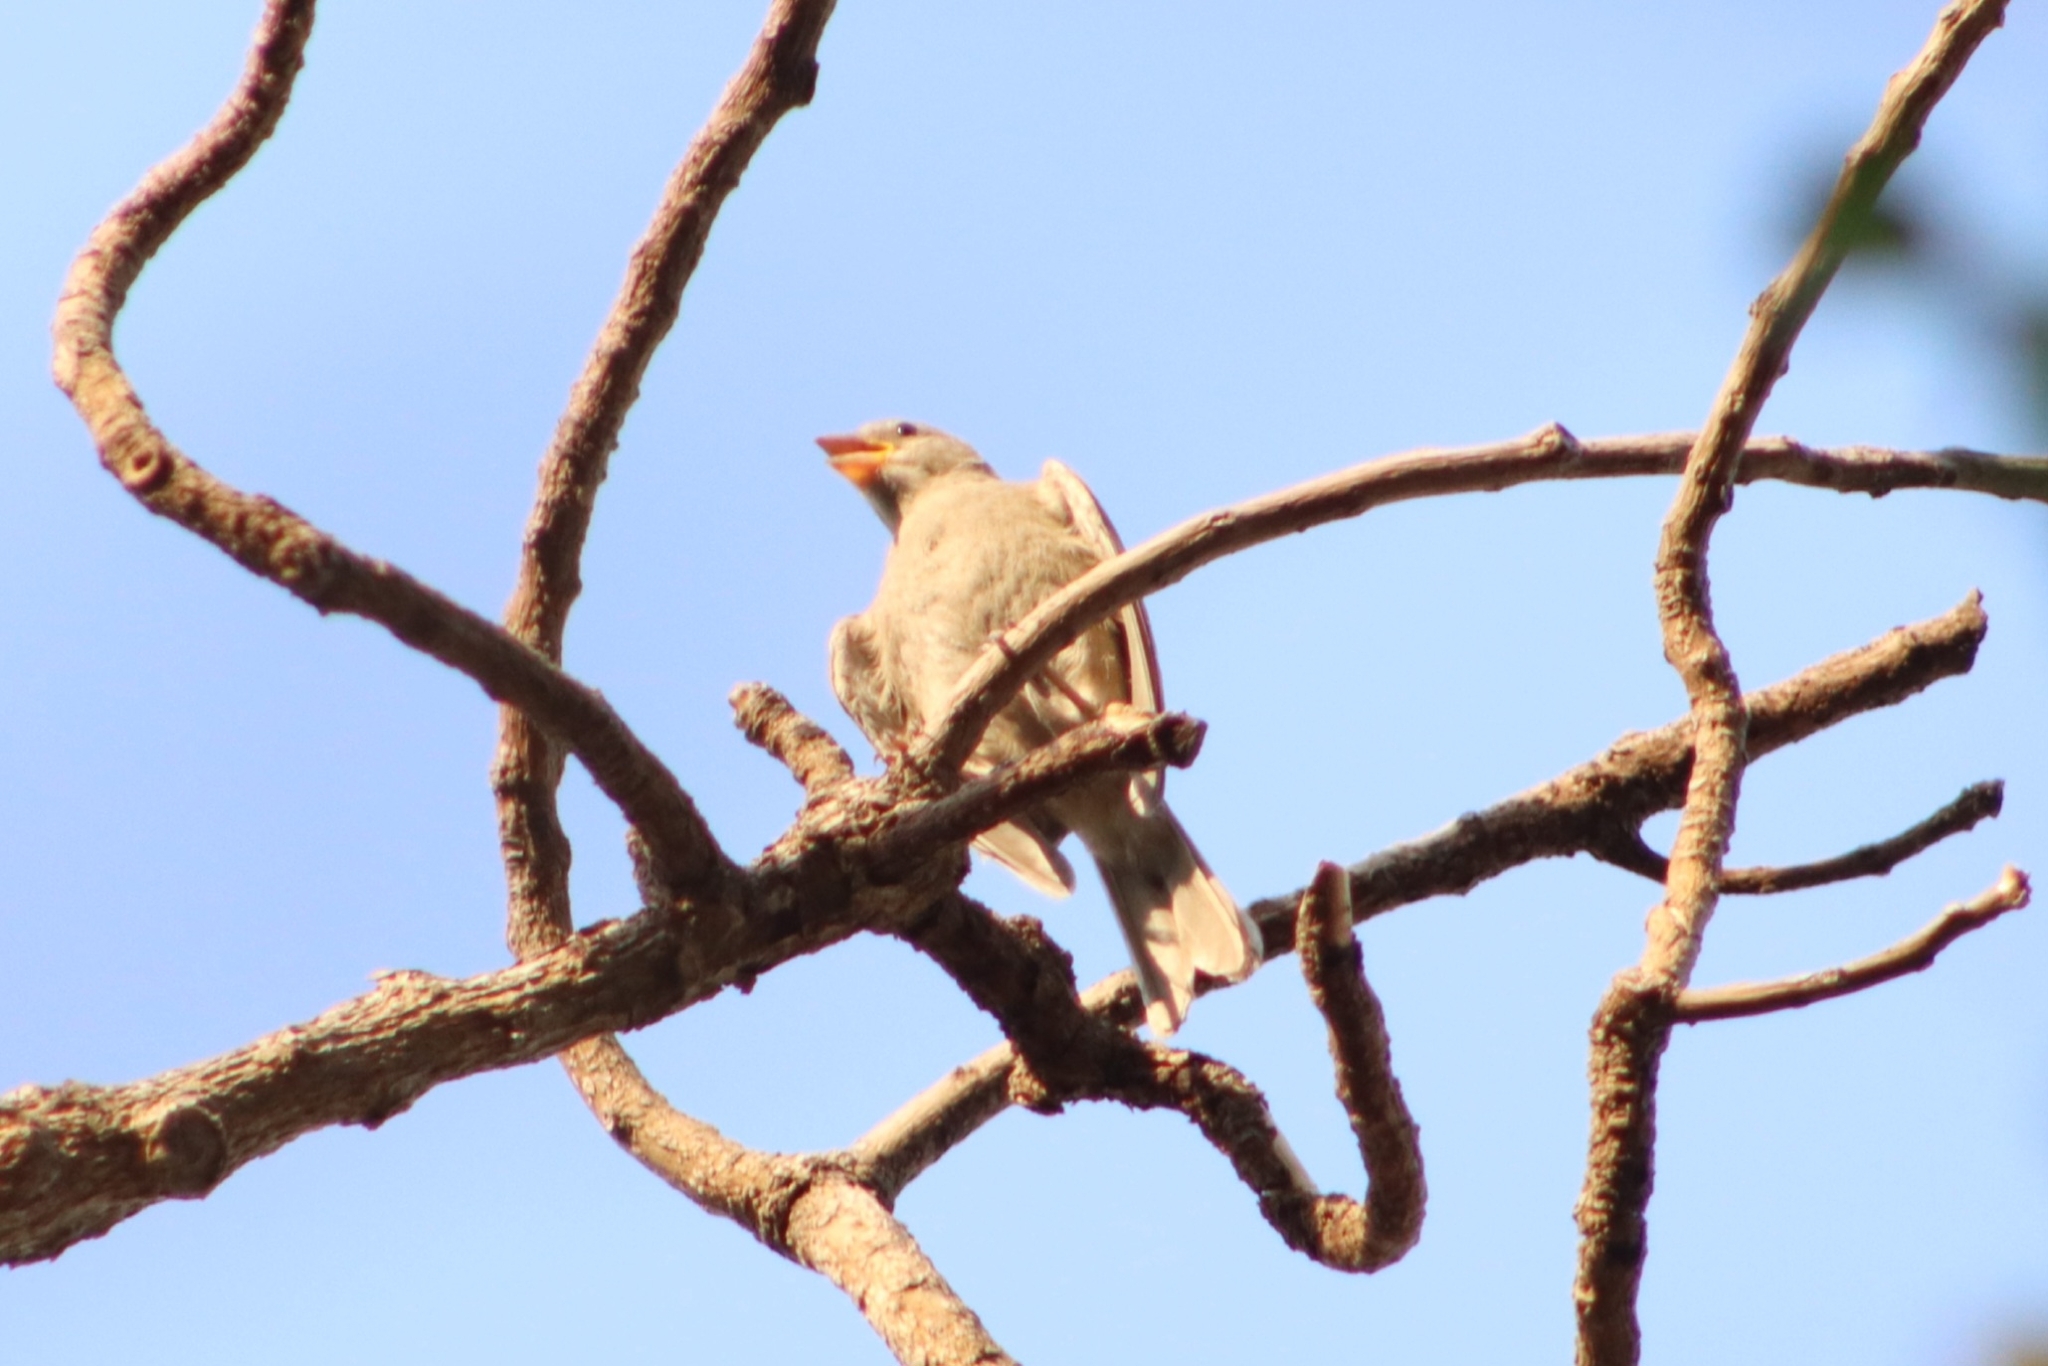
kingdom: Animalia
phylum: Chordata
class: Aves
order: Passeriformes
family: Passeridae
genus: Passer
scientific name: Passer domesticus
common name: House sparrow
